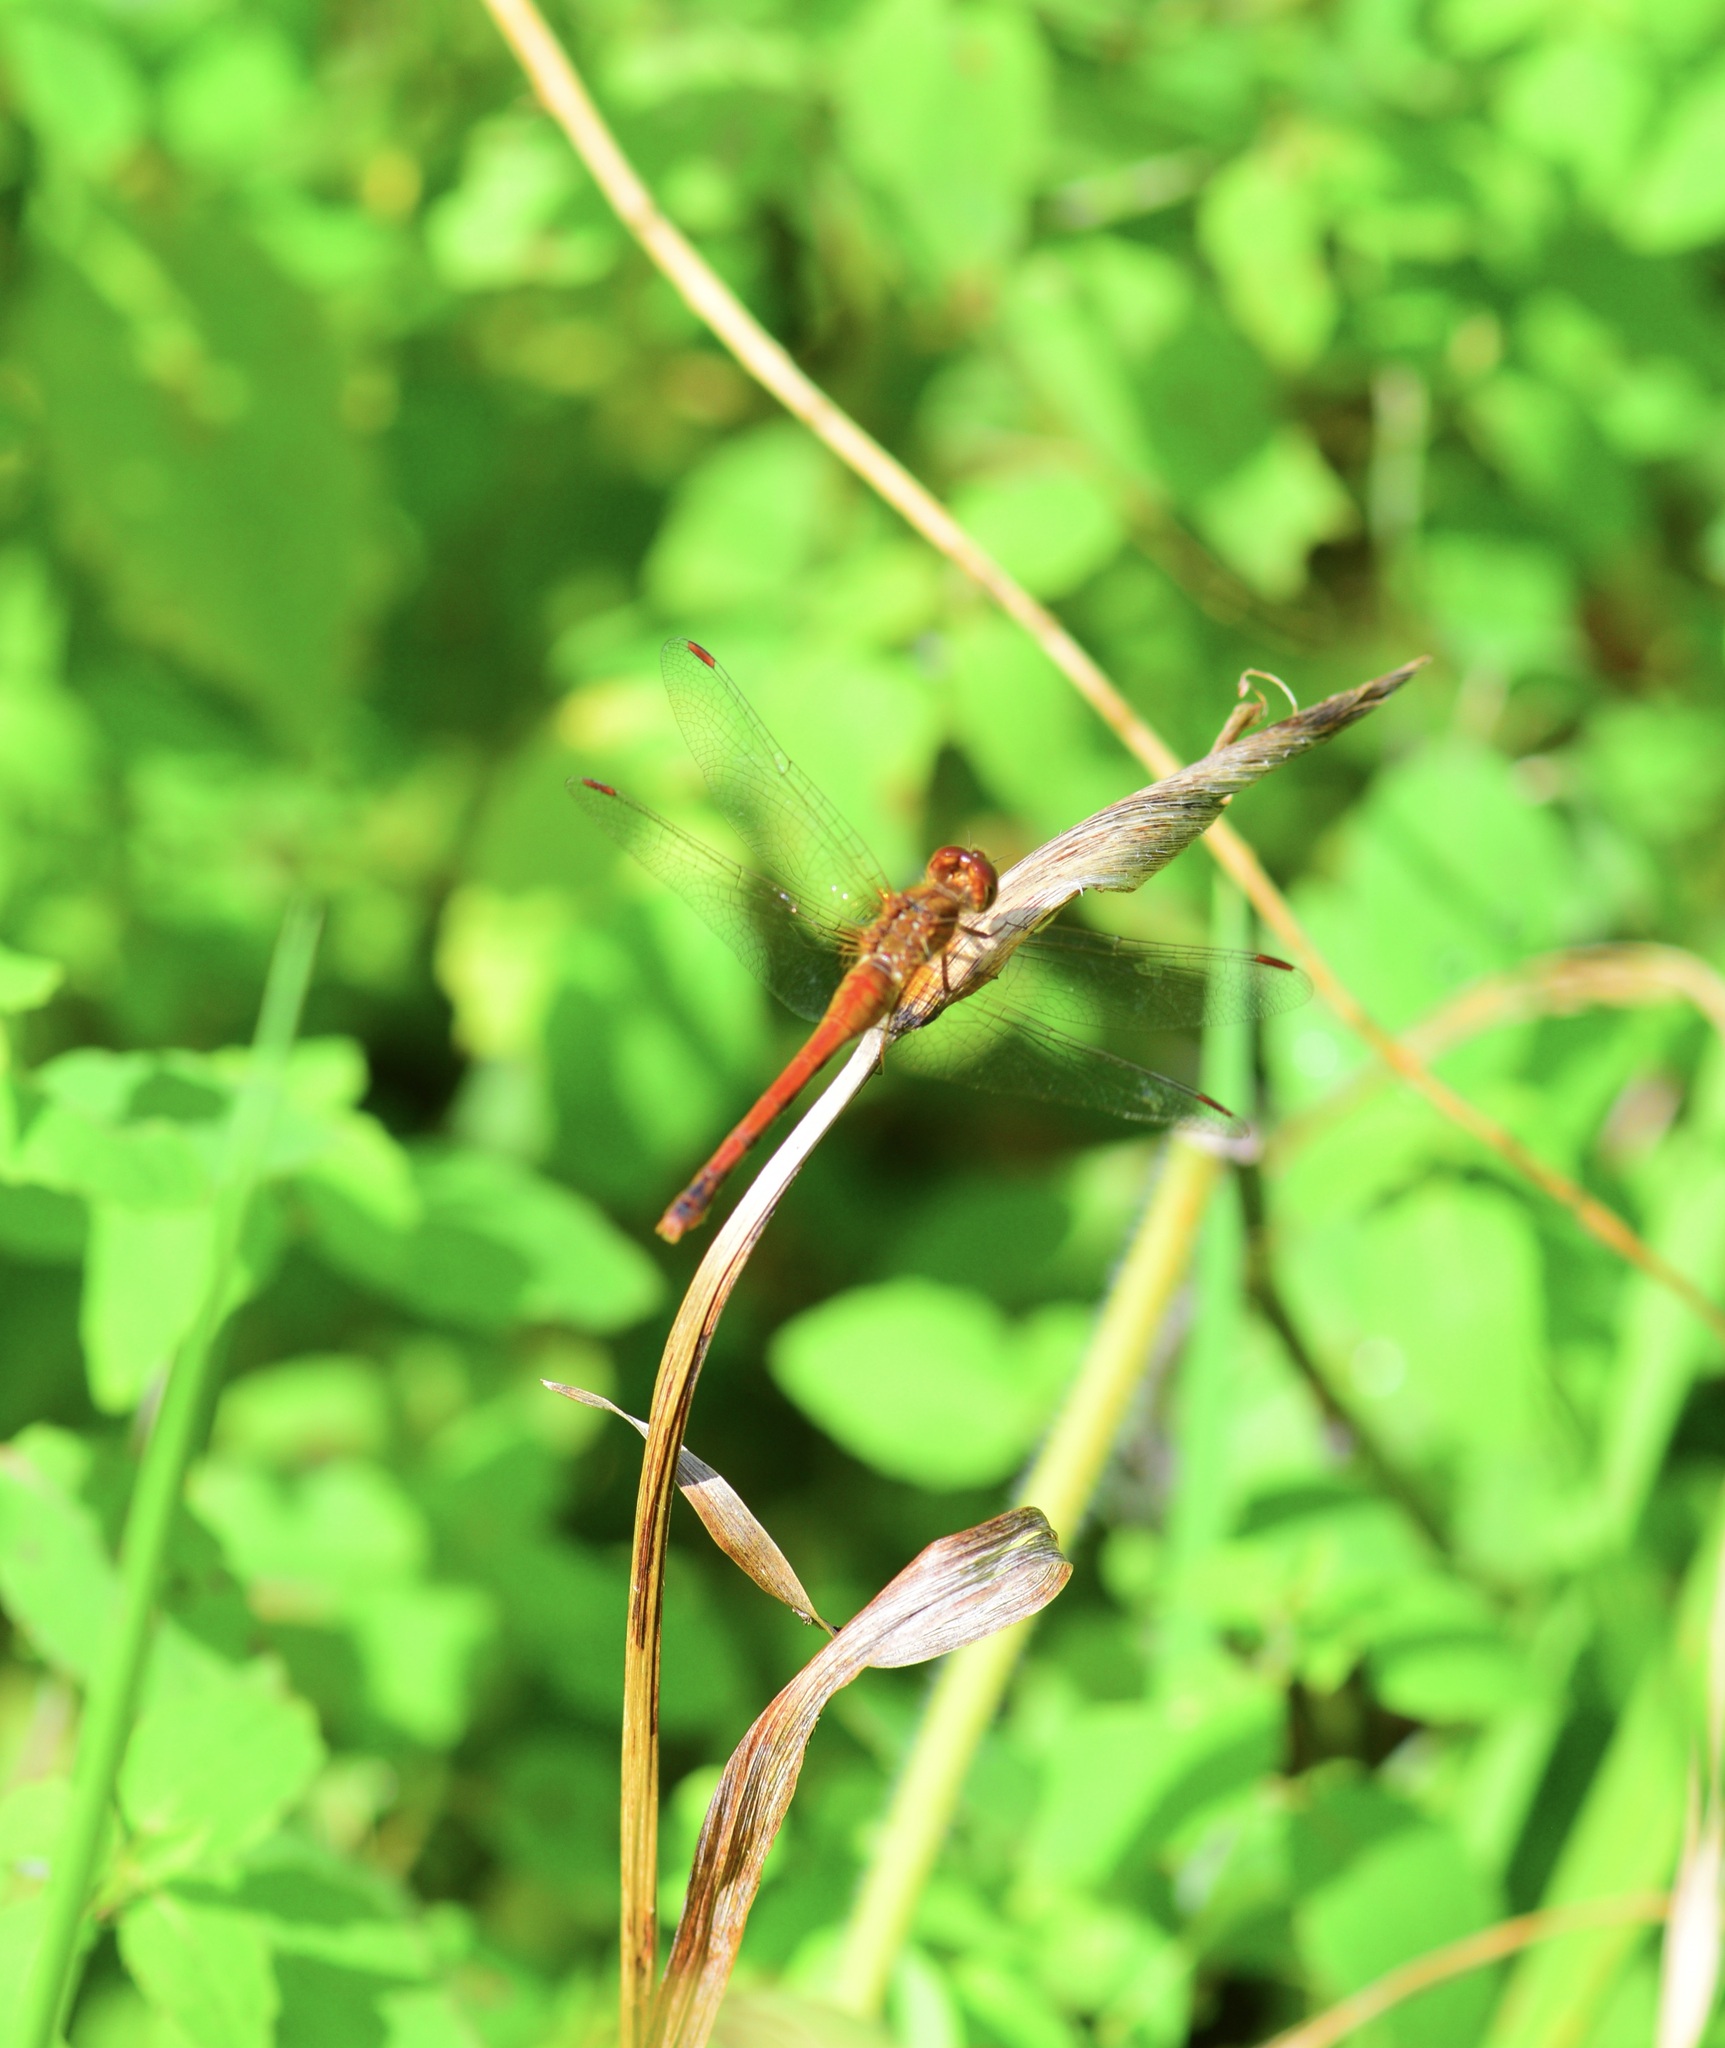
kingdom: Animalia
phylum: Arthropoda
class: Insecta
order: Odonata
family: Libellulidae
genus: Sympetrum
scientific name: Sympetrum vicinum
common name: Autumn meadowhawk
